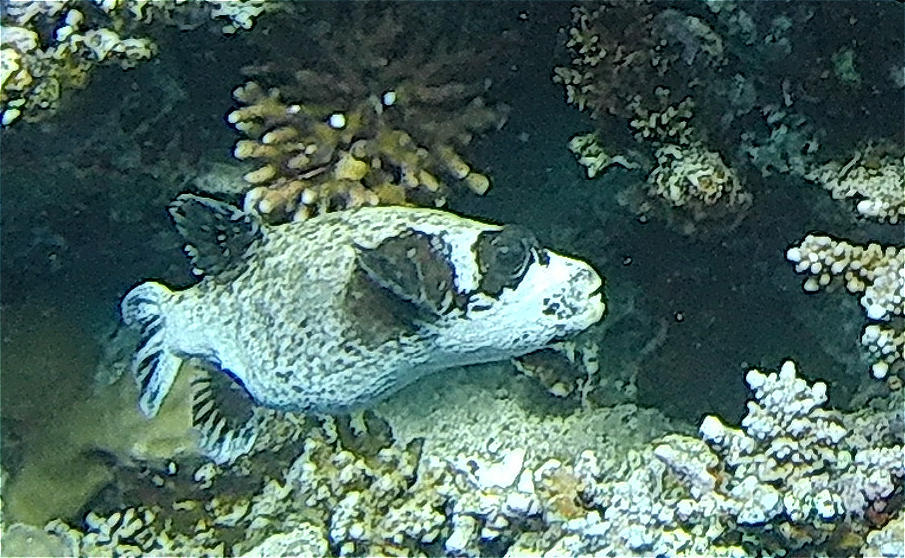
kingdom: Animalia
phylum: Chordata
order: Tetraodontiformes
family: Tetraodontidae
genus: Arothron
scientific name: Arothron diadematus
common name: Masked puffer
